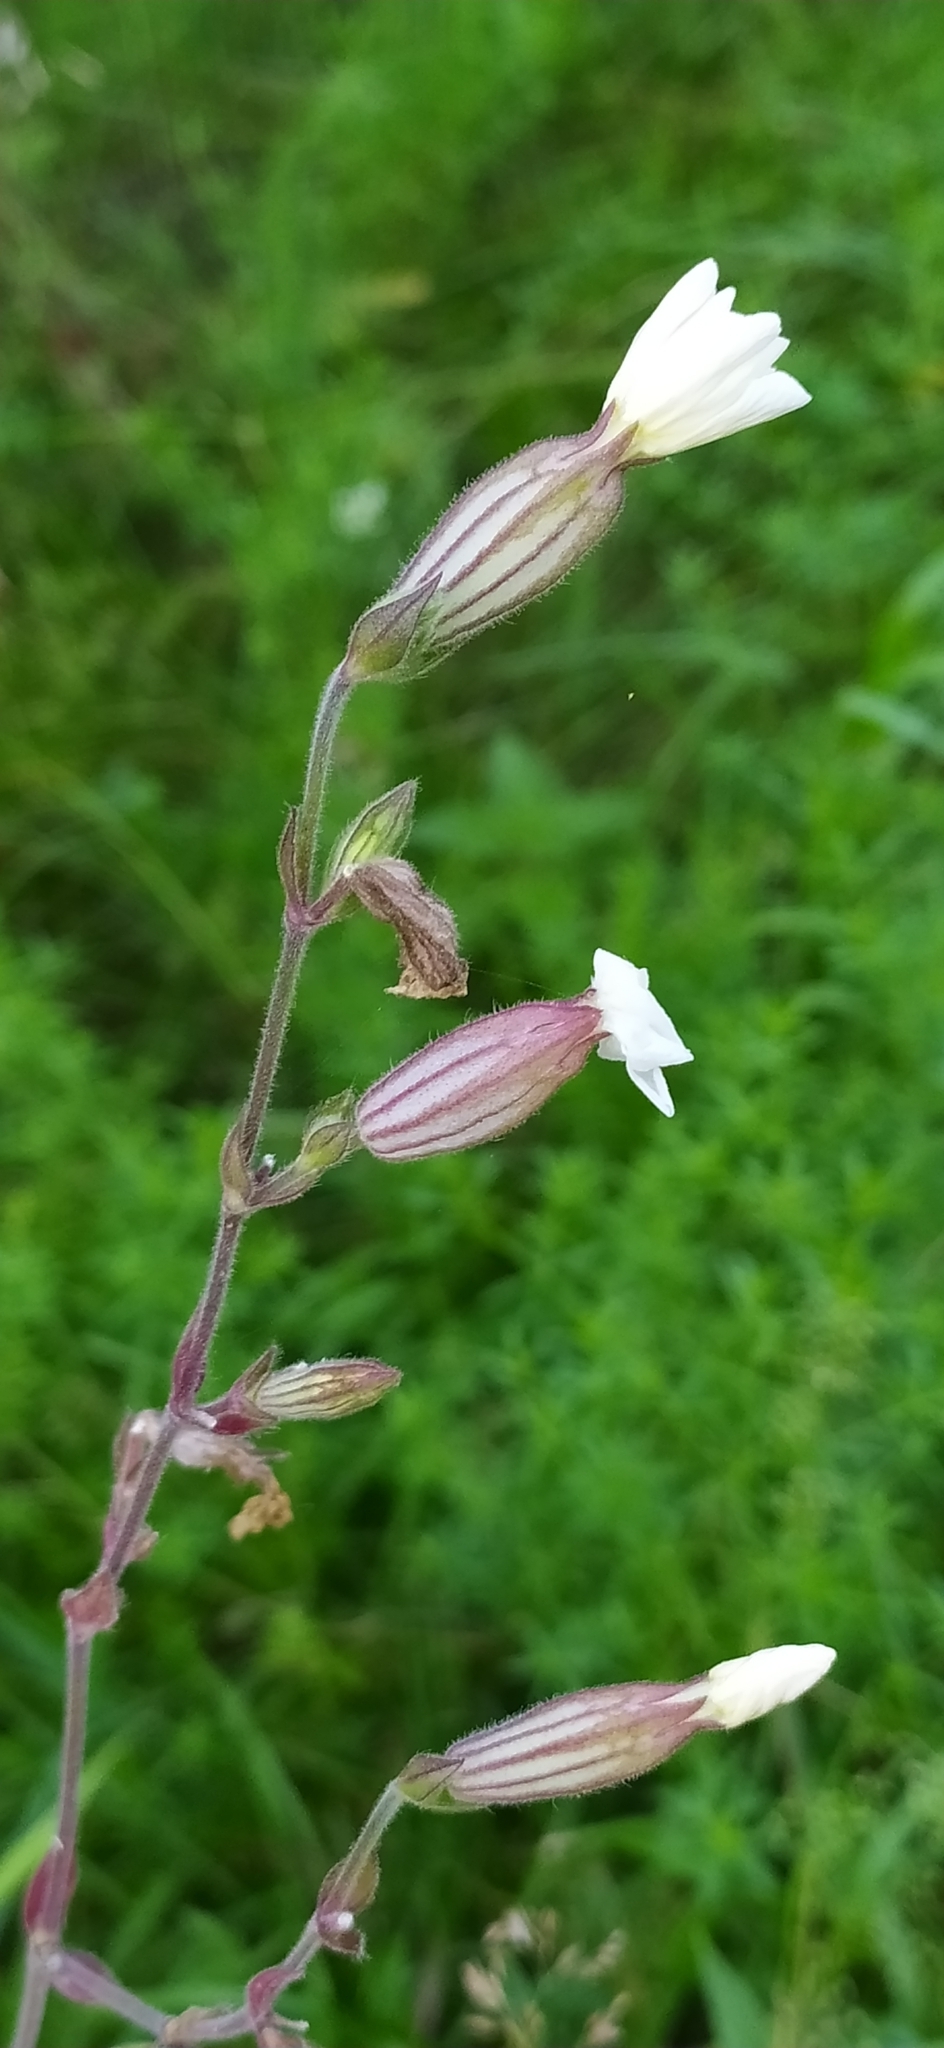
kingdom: Plantae
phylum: Tracheophyta
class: Magnoliopsida
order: Caryophyllales
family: Caryophyllaceae
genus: Silene
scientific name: Silene latifolia
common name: White campion
